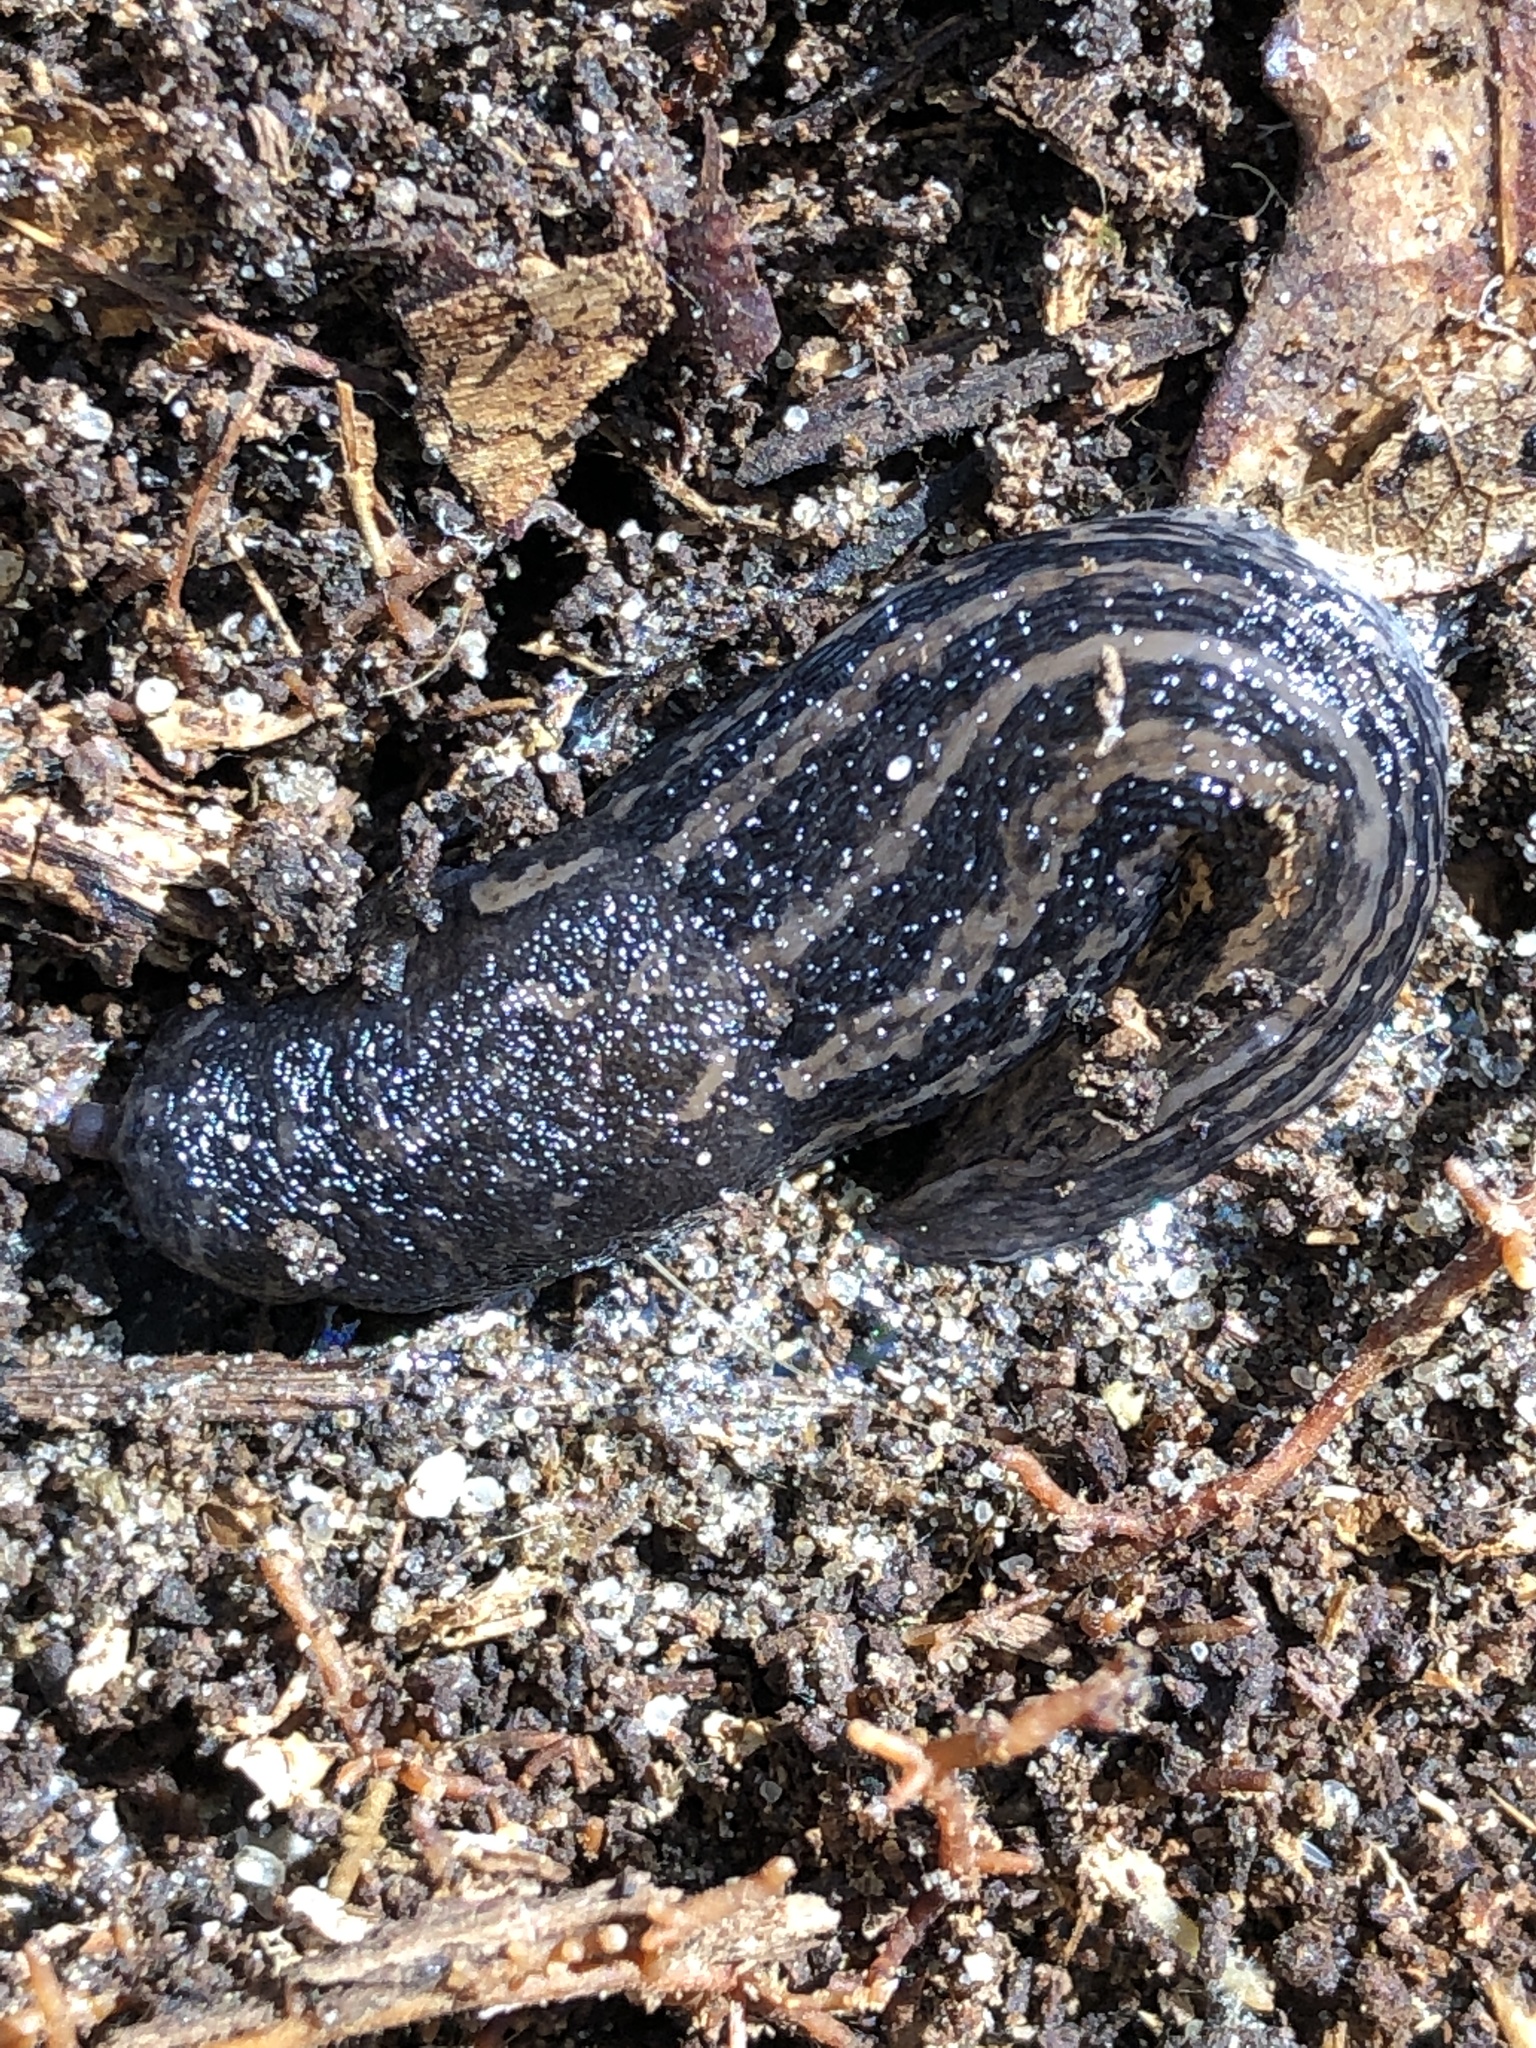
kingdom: Animalia
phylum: Mollusca
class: Gastropoda
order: Stylommatophora
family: Limacidae
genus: Limax
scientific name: Limax maximus
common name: Great grey slug
